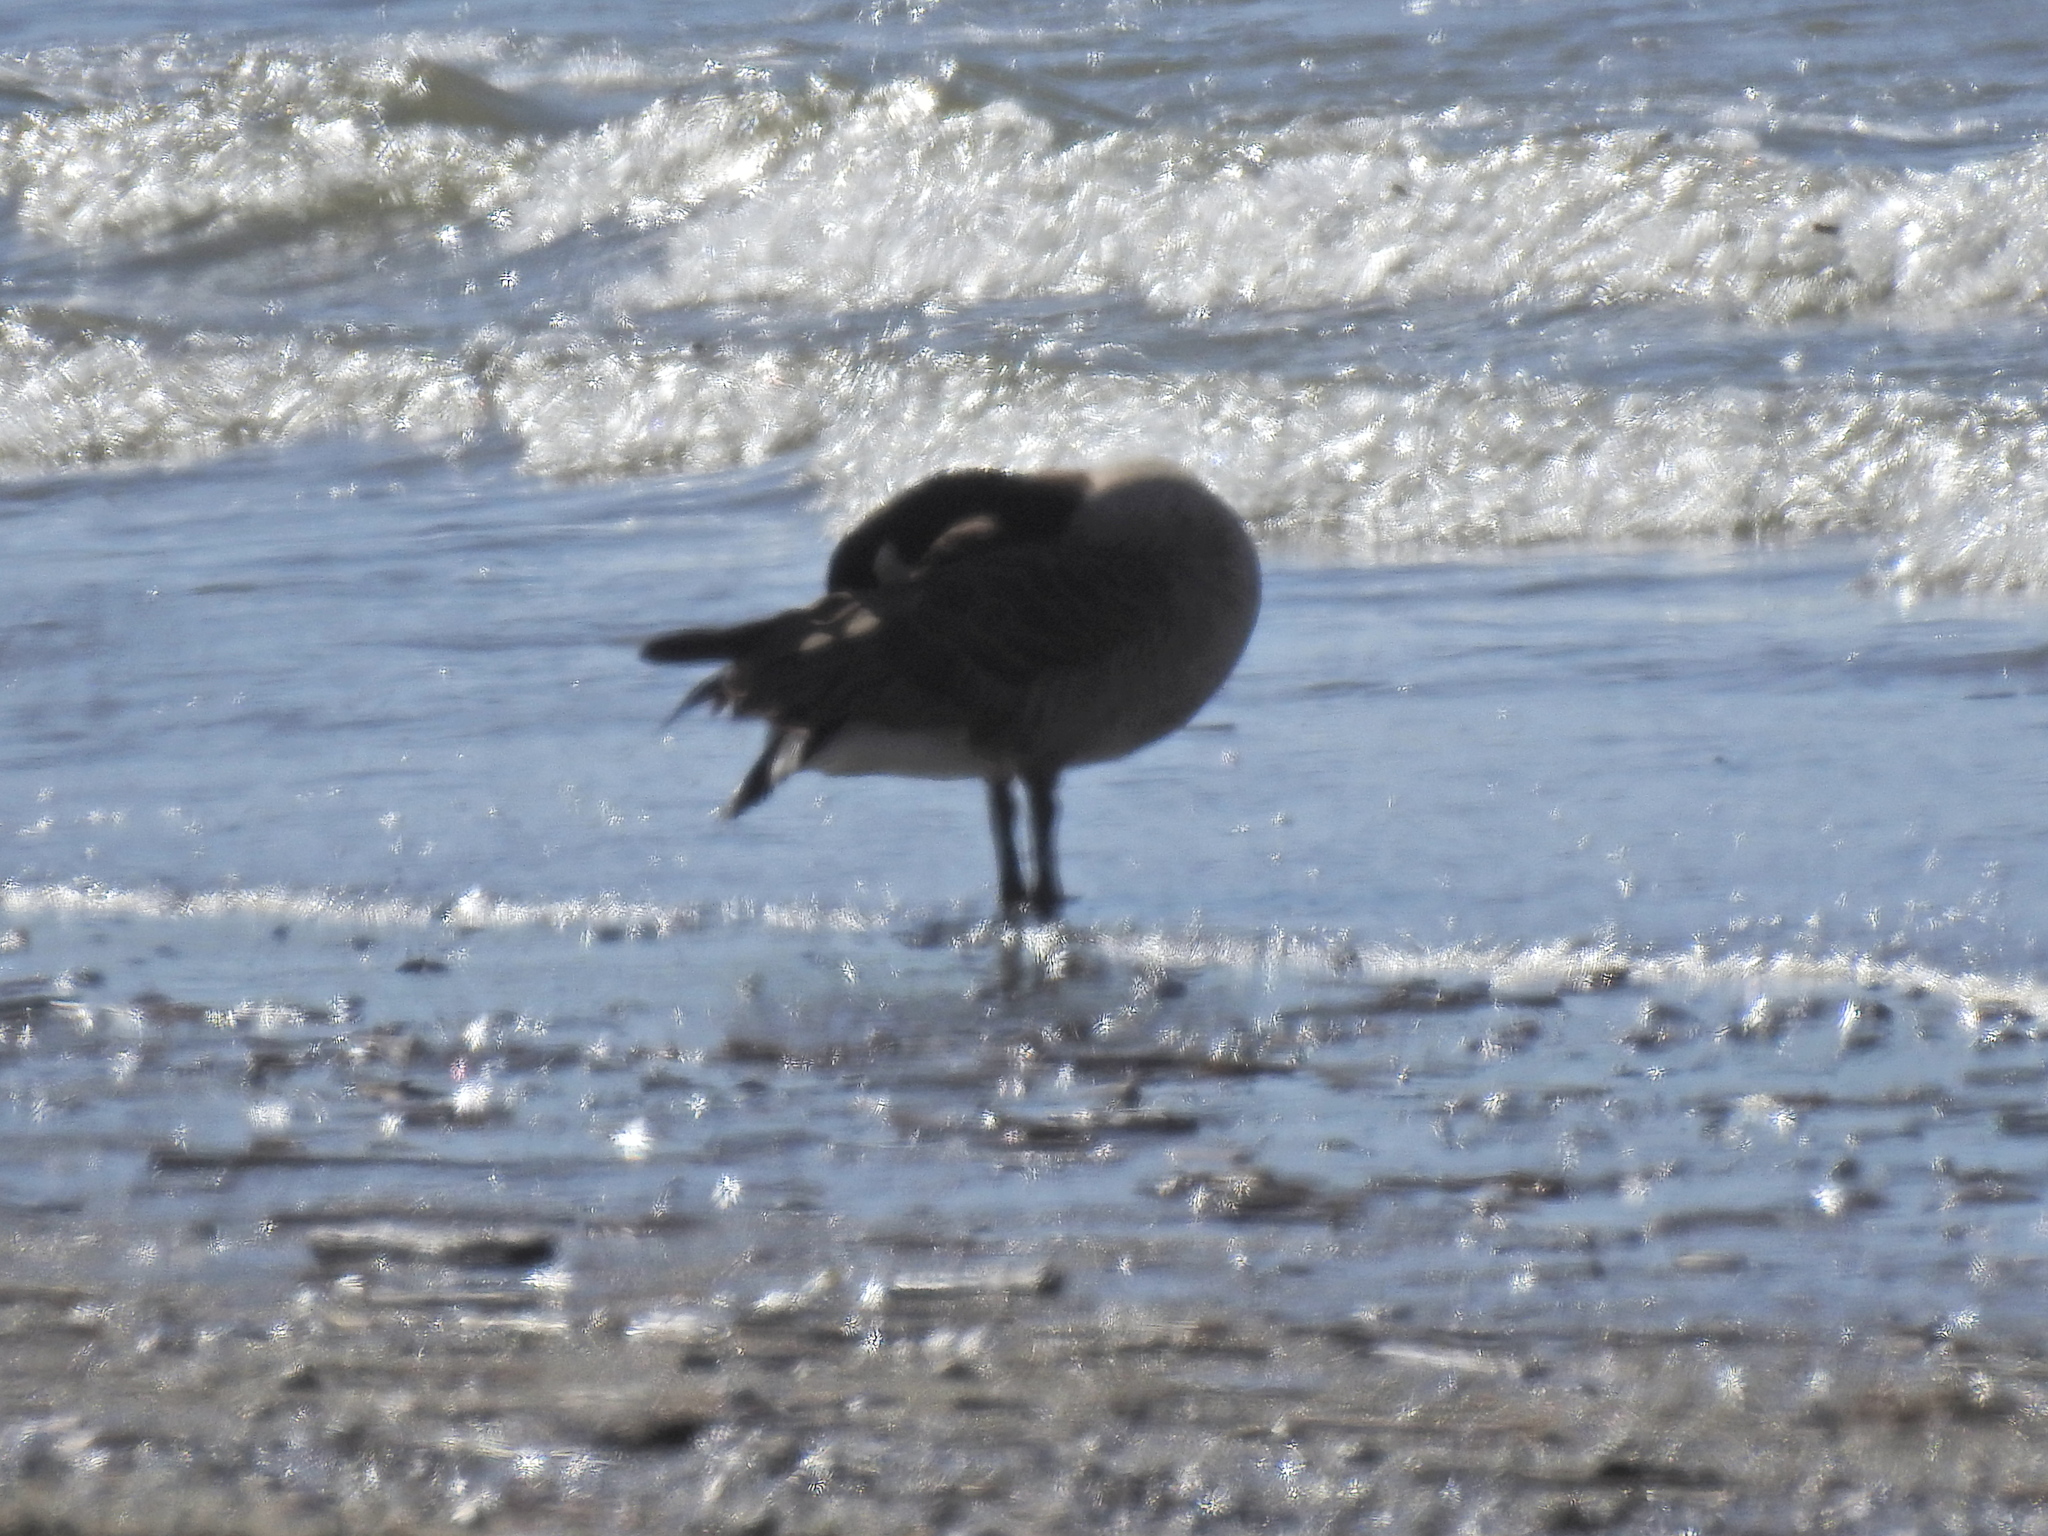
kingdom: Animalia
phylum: Chordata
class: Aves
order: Anseriformes
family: Anatidae
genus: Branta
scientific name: Branta canadensis
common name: Canada goose
